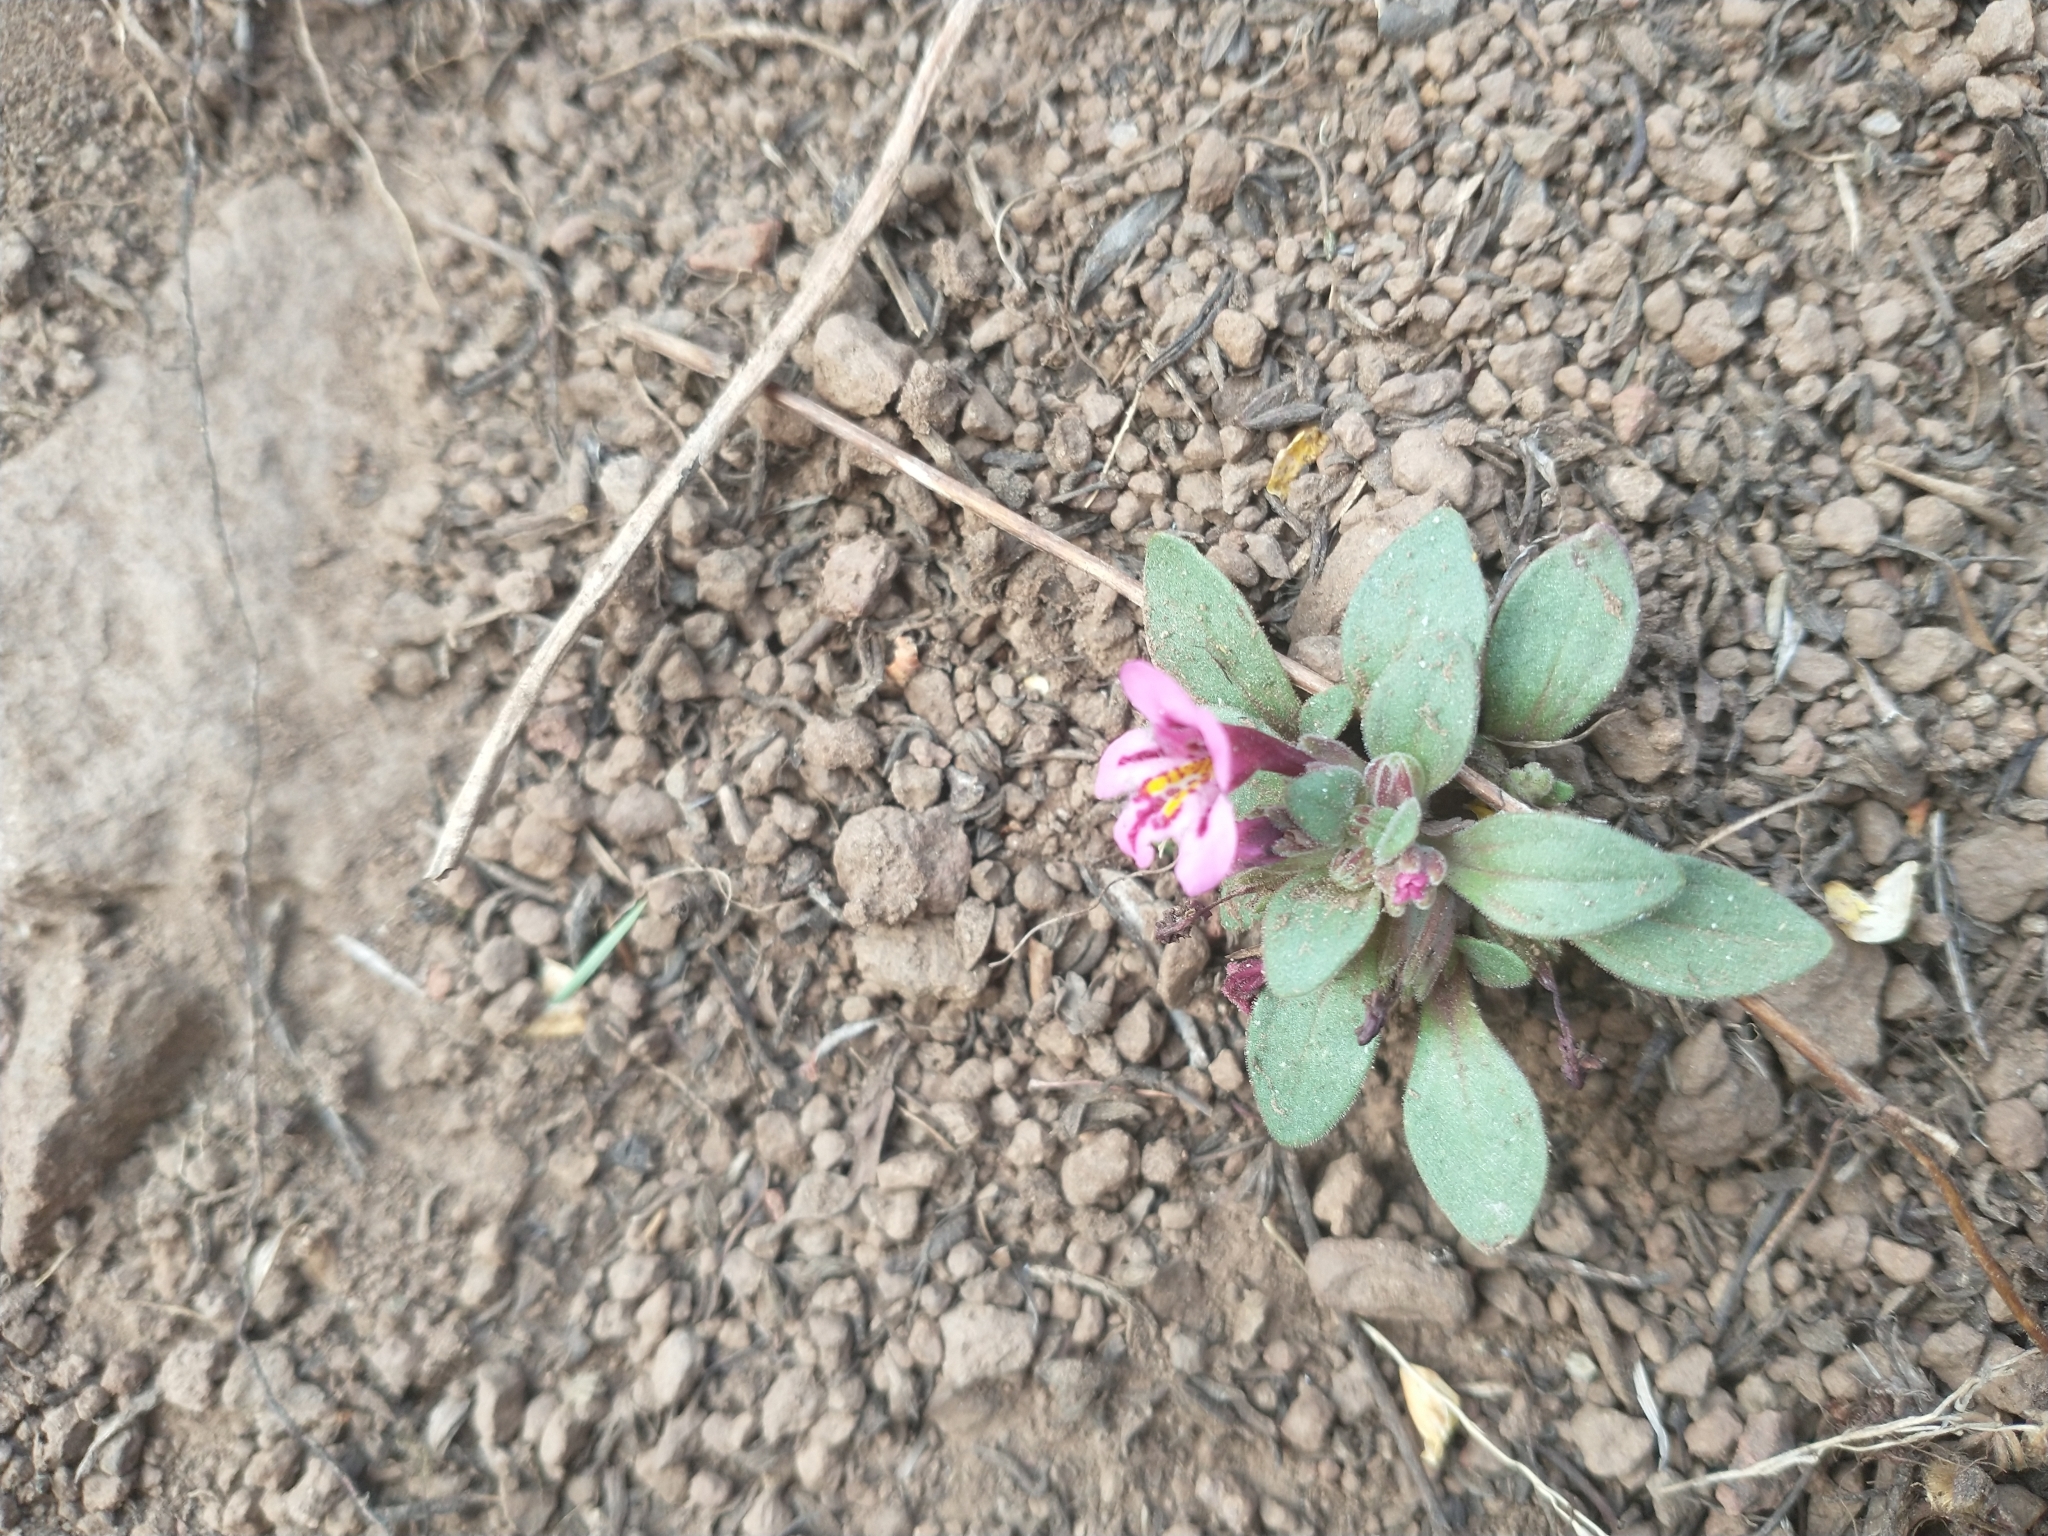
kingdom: Plantae
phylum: Tracheophyta
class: Magnoliopsida
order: Lamiales
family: Phrymaceae
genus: Diplacus
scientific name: Diplacus nanus
